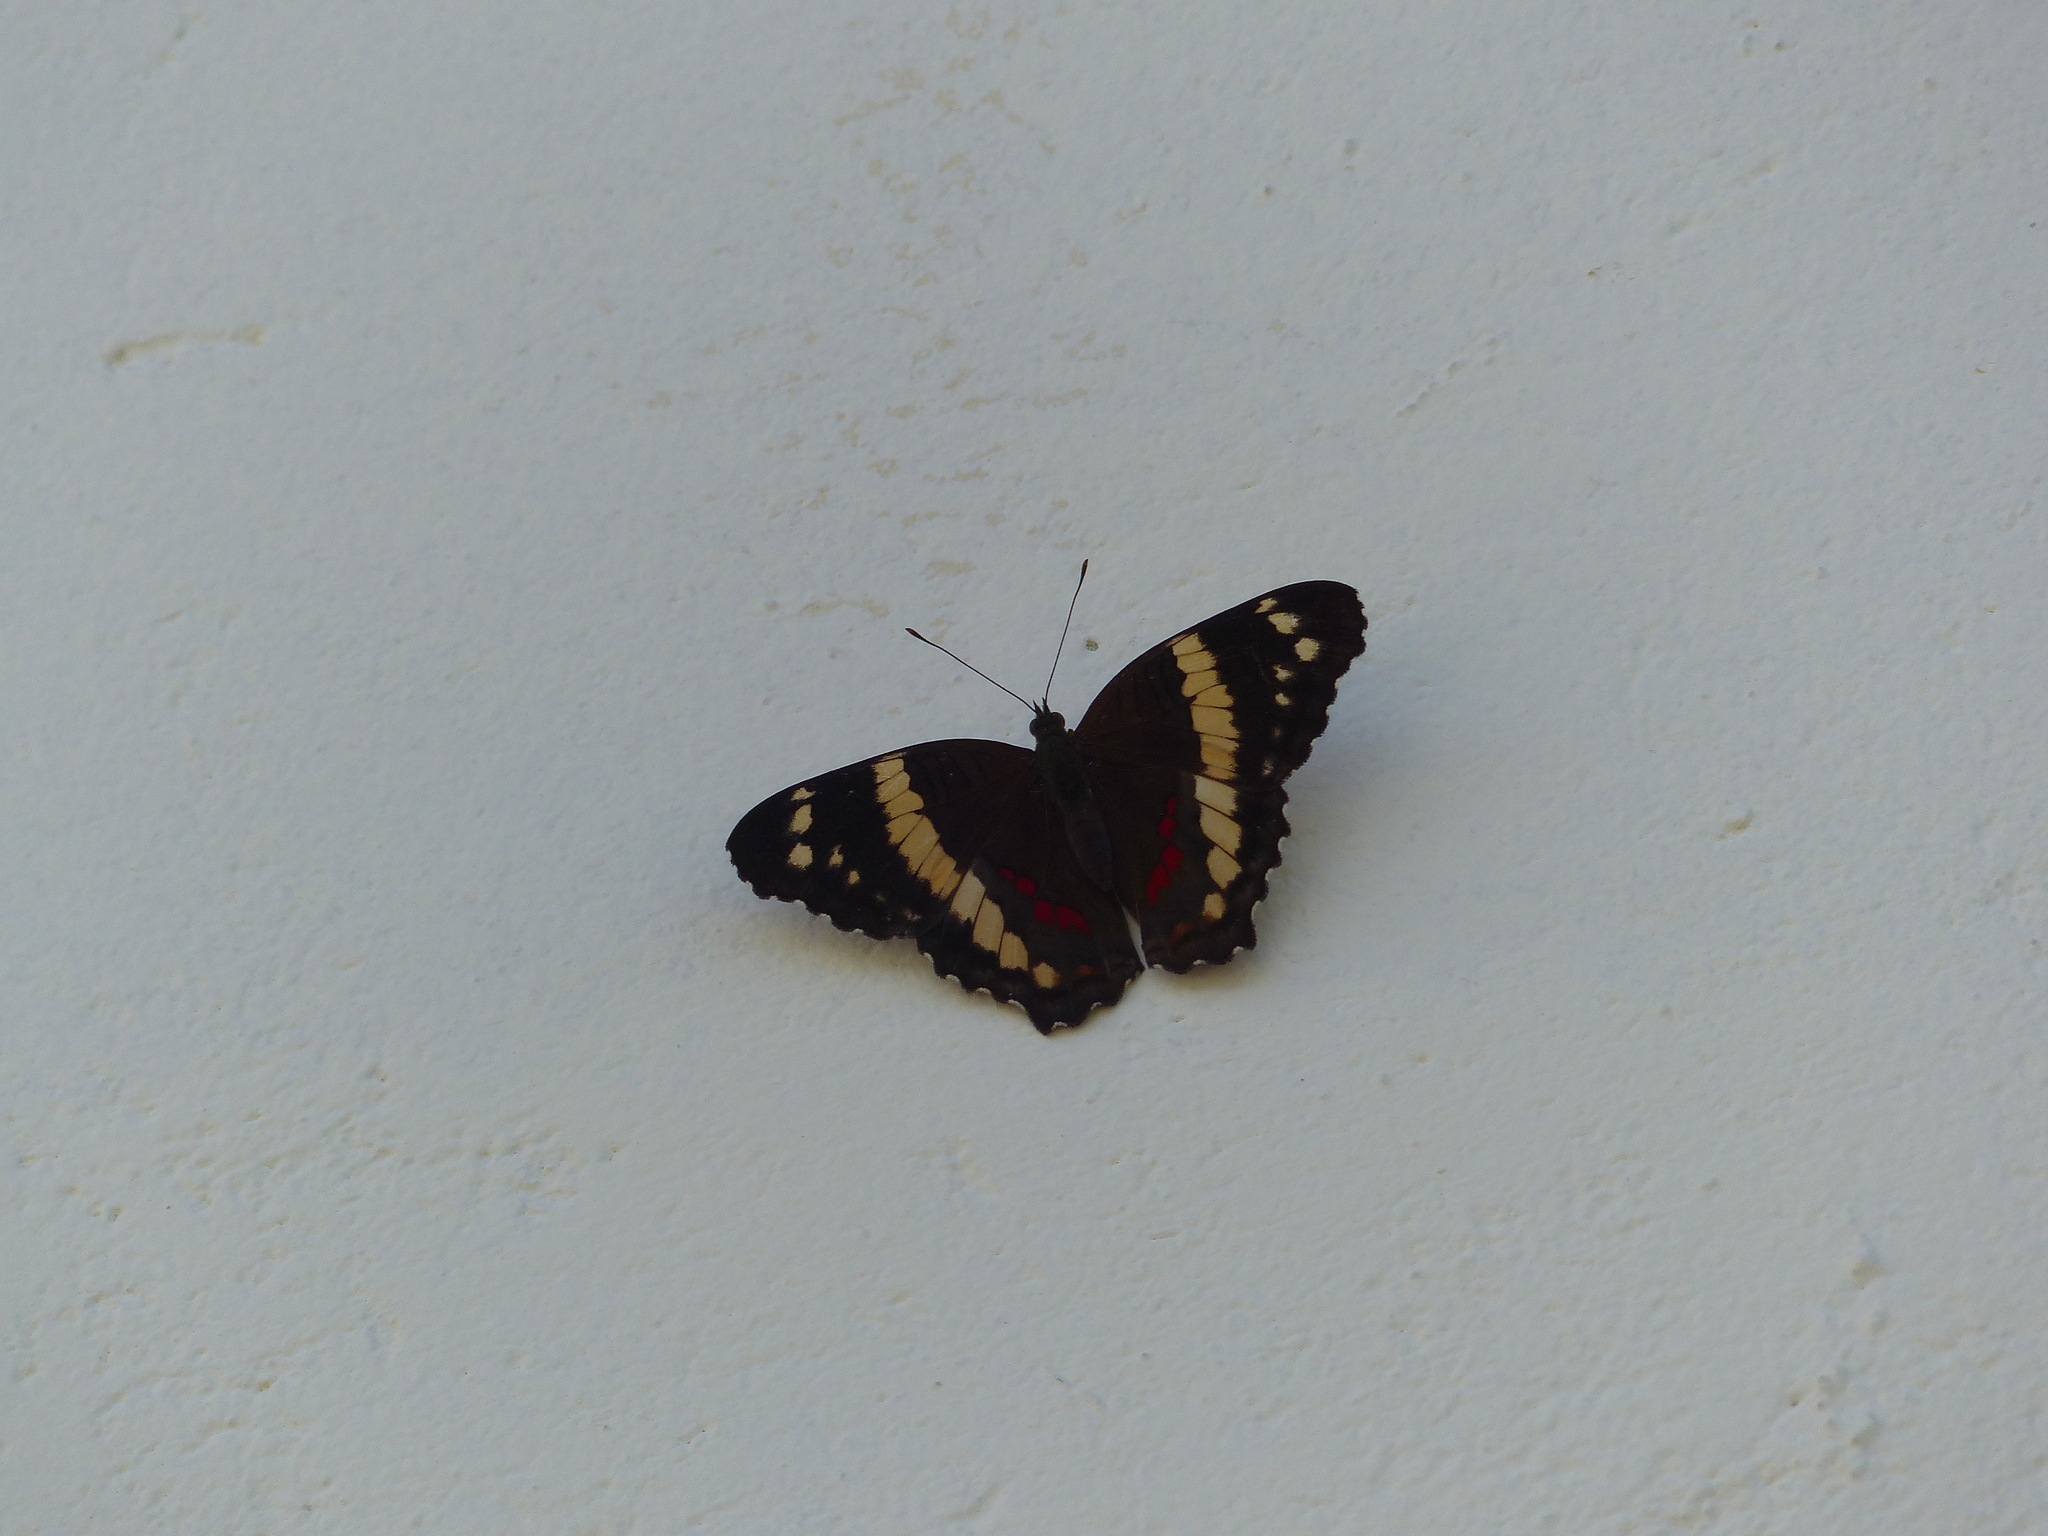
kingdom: Animalia
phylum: Arthropoda
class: Insecta
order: Lepidoptera
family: Nymphalidae
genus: Anartia
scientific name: Anartia fatima
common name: Banded peacock
